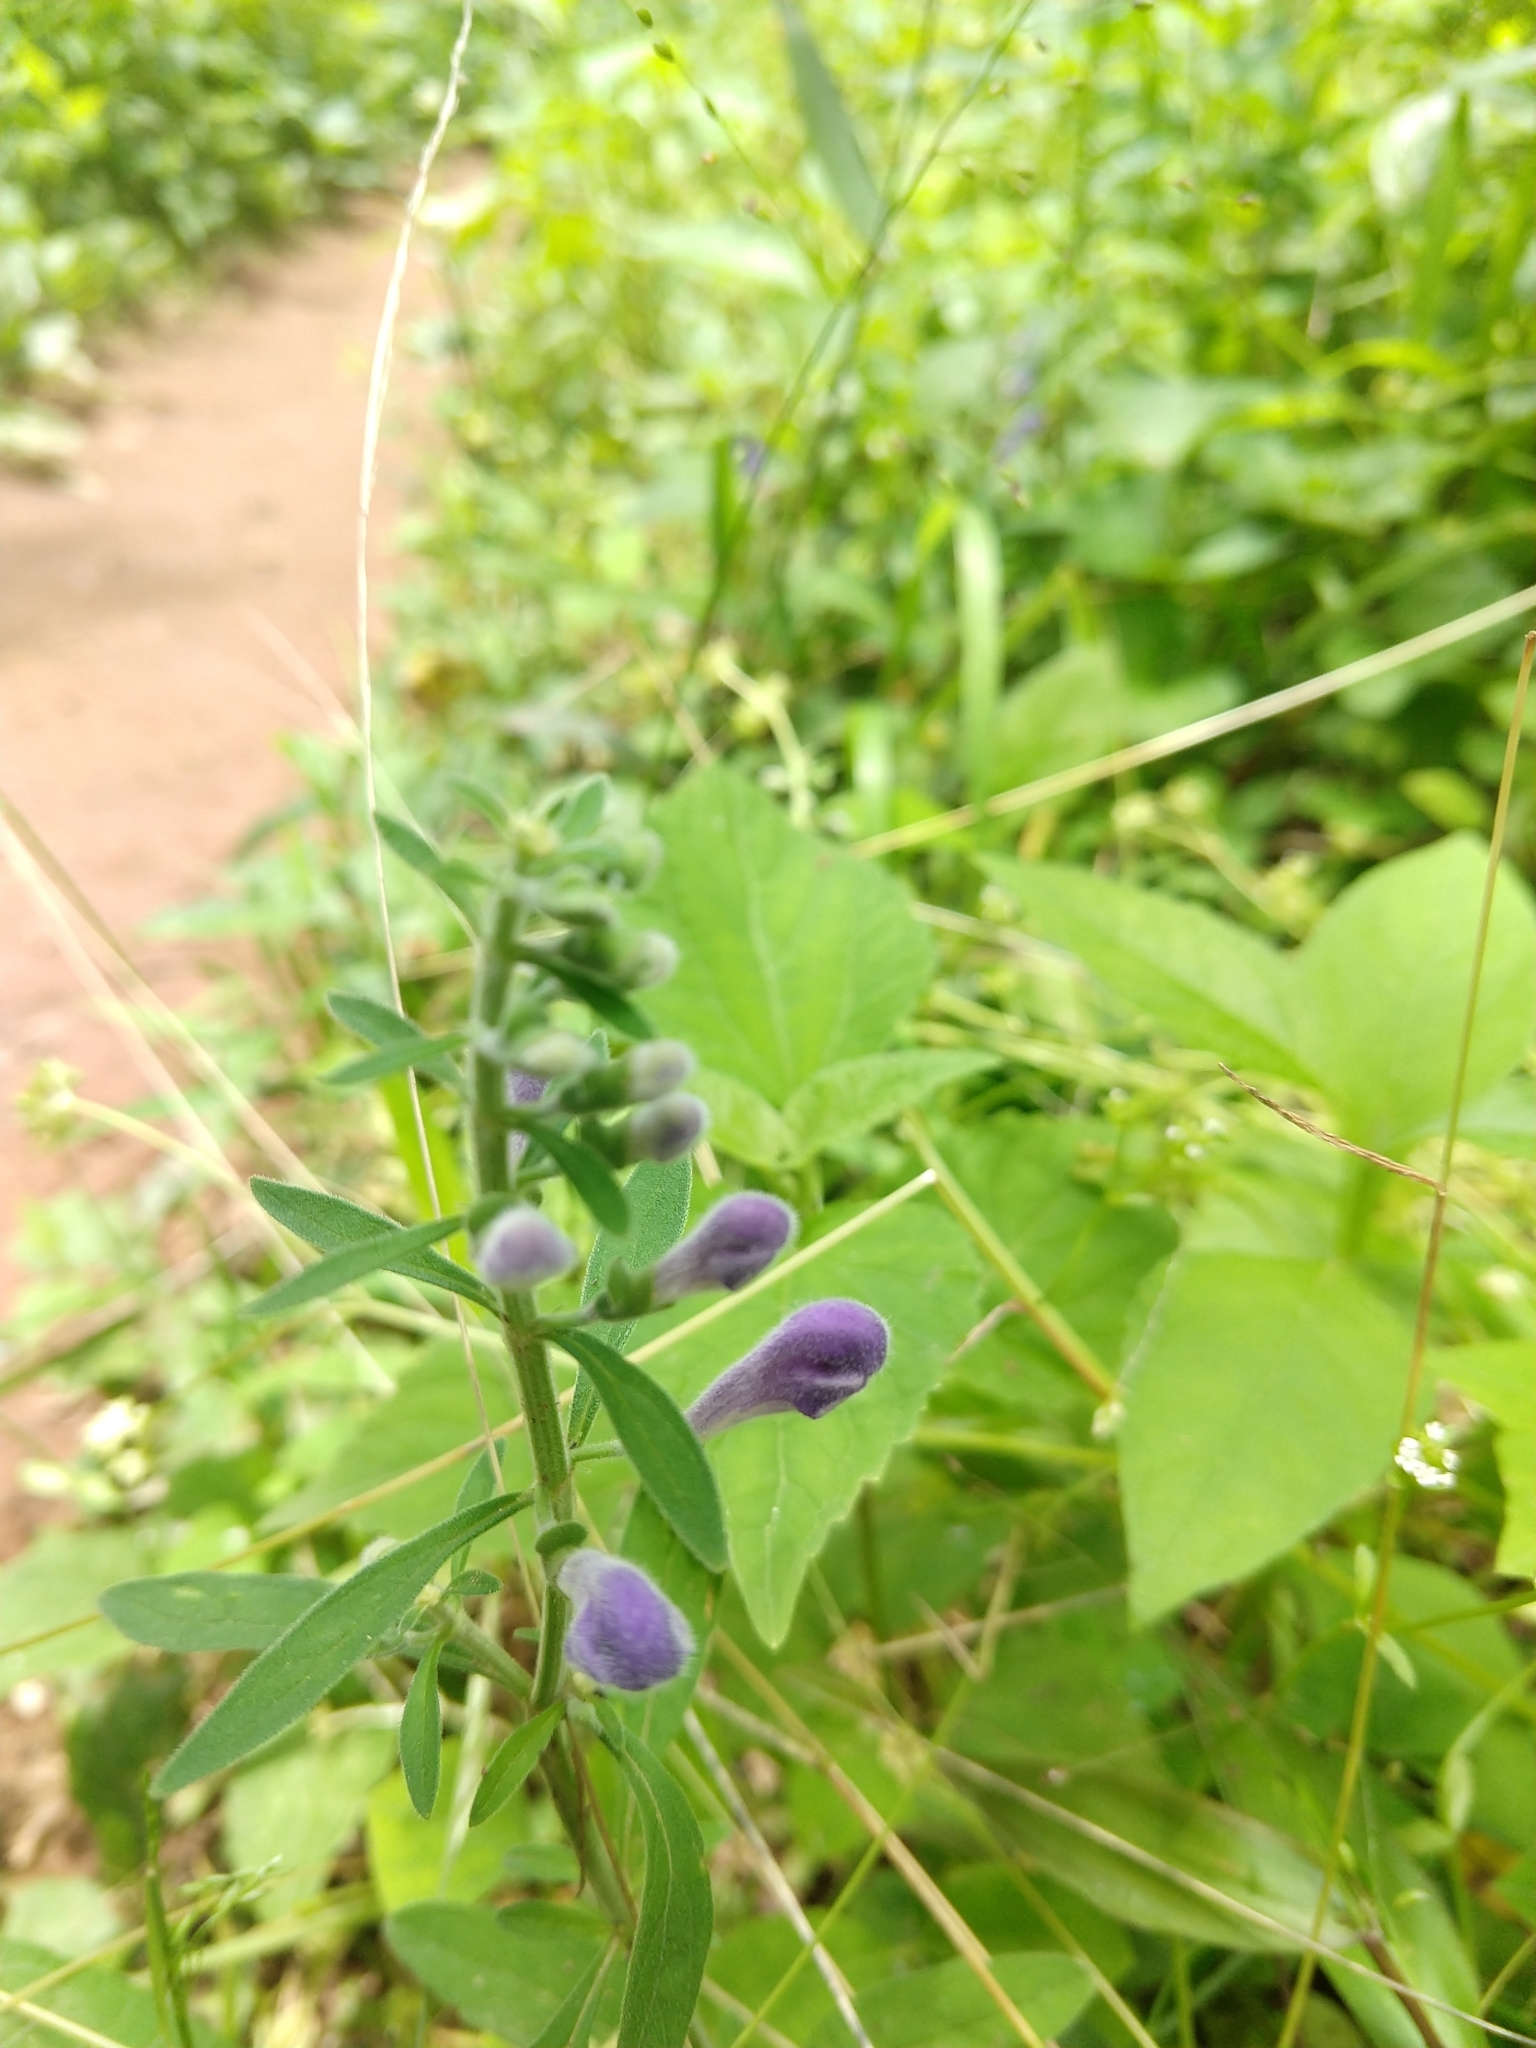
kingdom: Plantae
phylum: Tracheophyta
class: Magnoliopsida
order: Lamiales
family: Lamiaceae
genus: Scutellaria
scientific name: Scutellaria integrifolia
